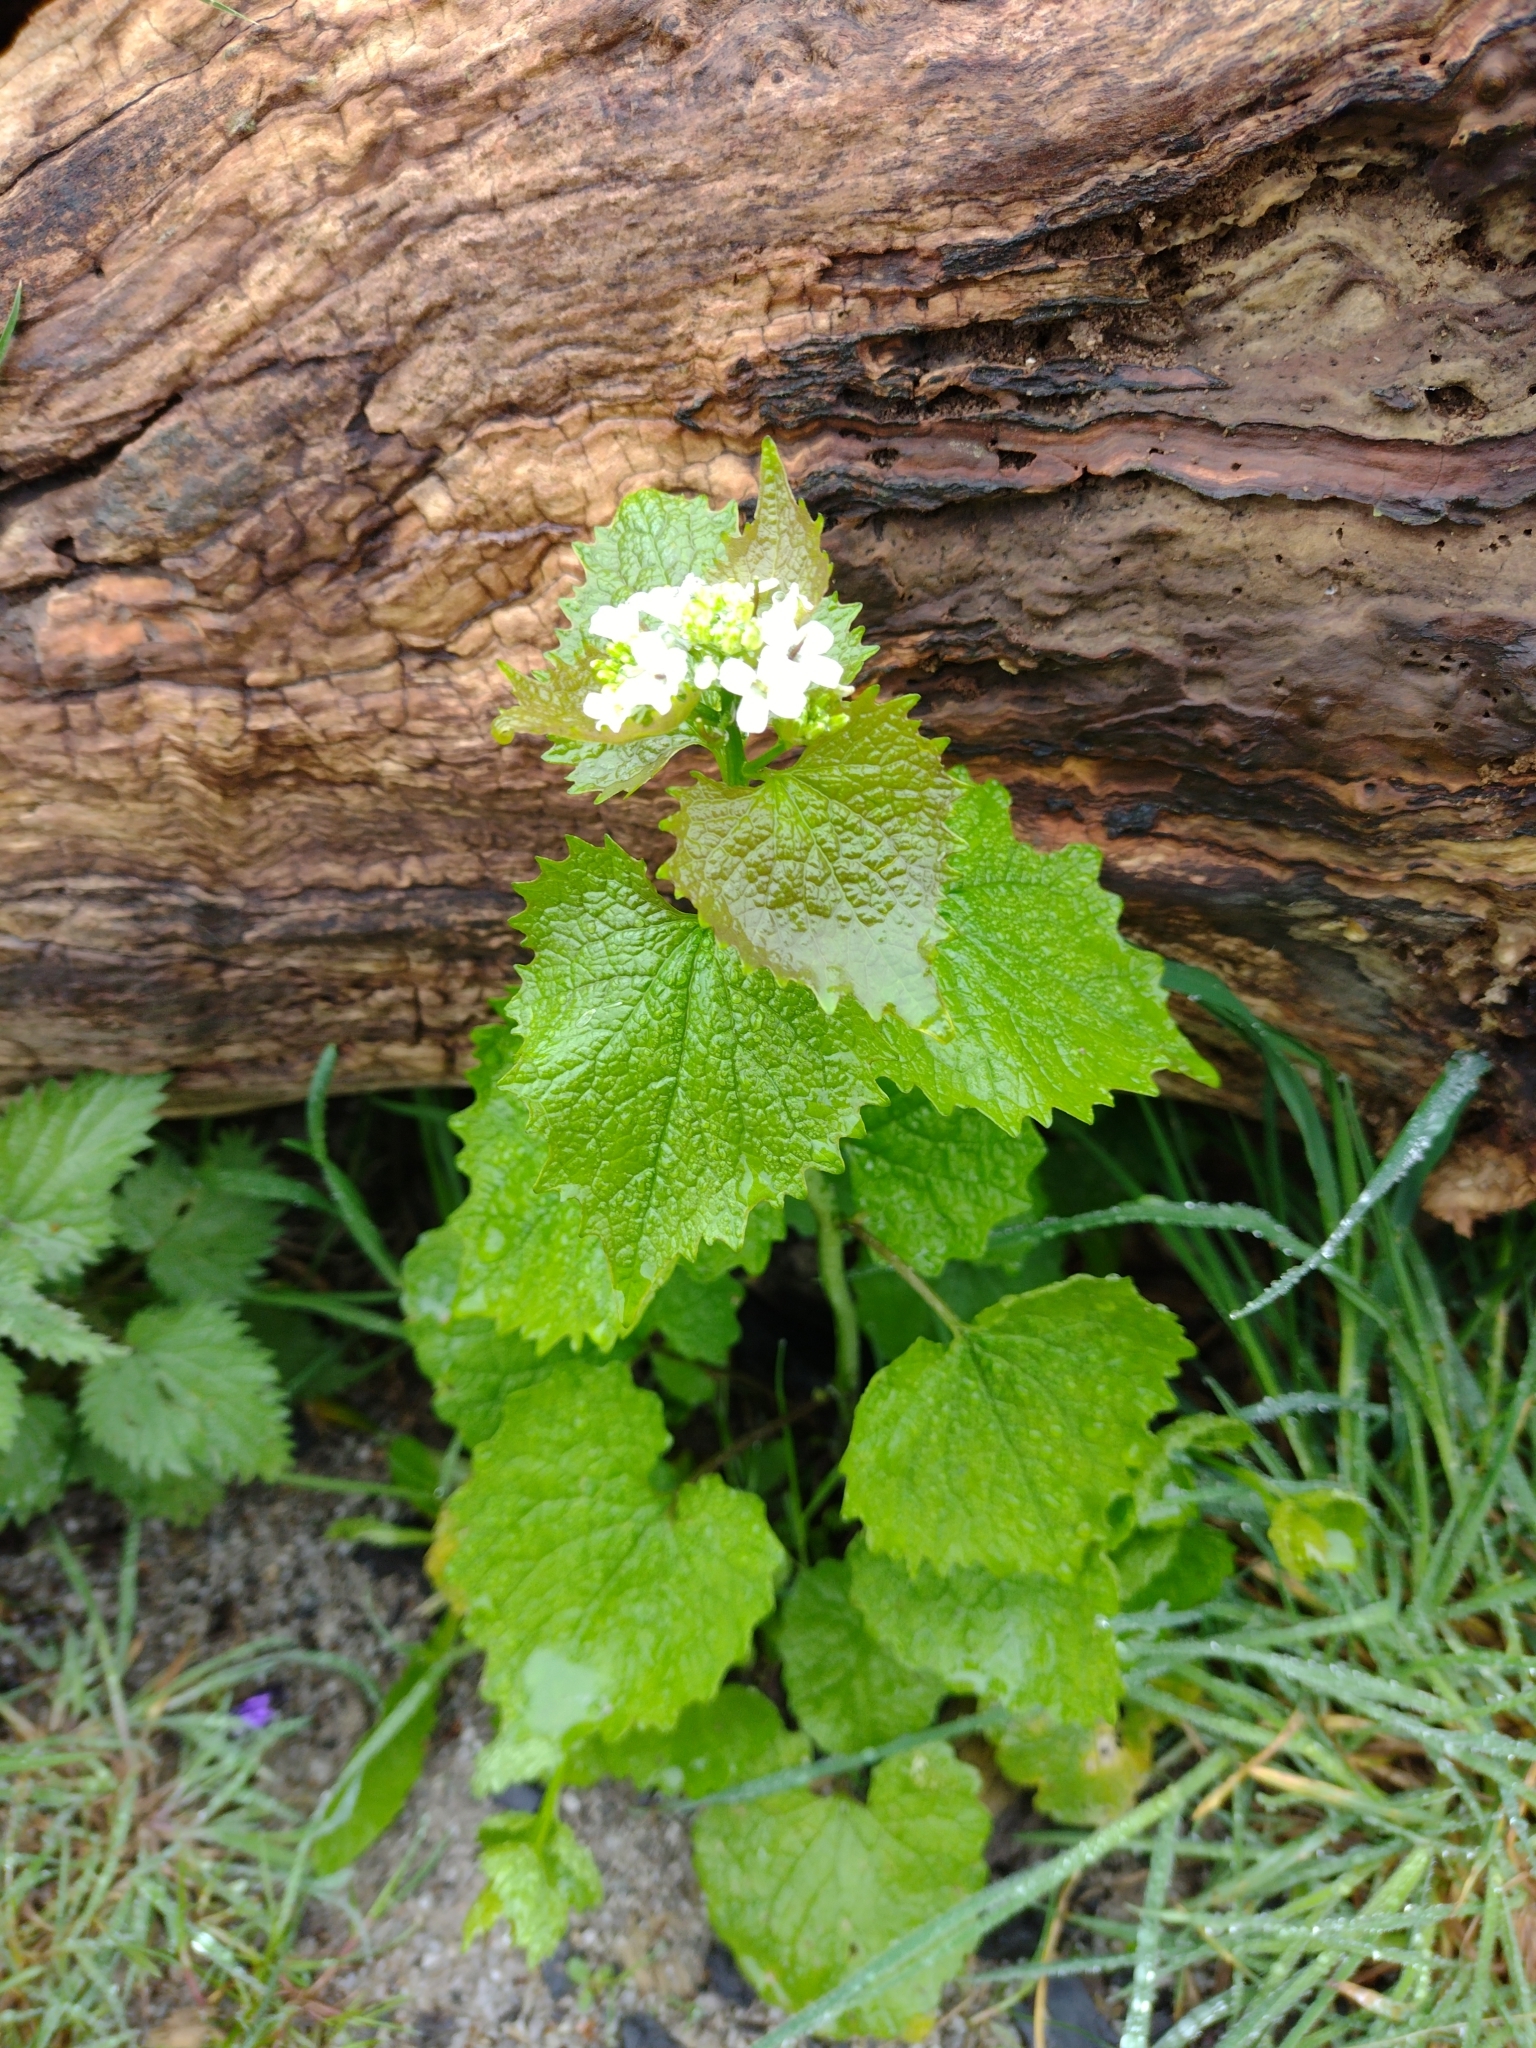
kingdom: Plantae
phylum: Tracheophyta
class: Magnoliopsida
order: Brassicales
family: Brassicaceae
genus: Alliaria
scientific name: Alliaria petiolata
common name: Garlic mustard
